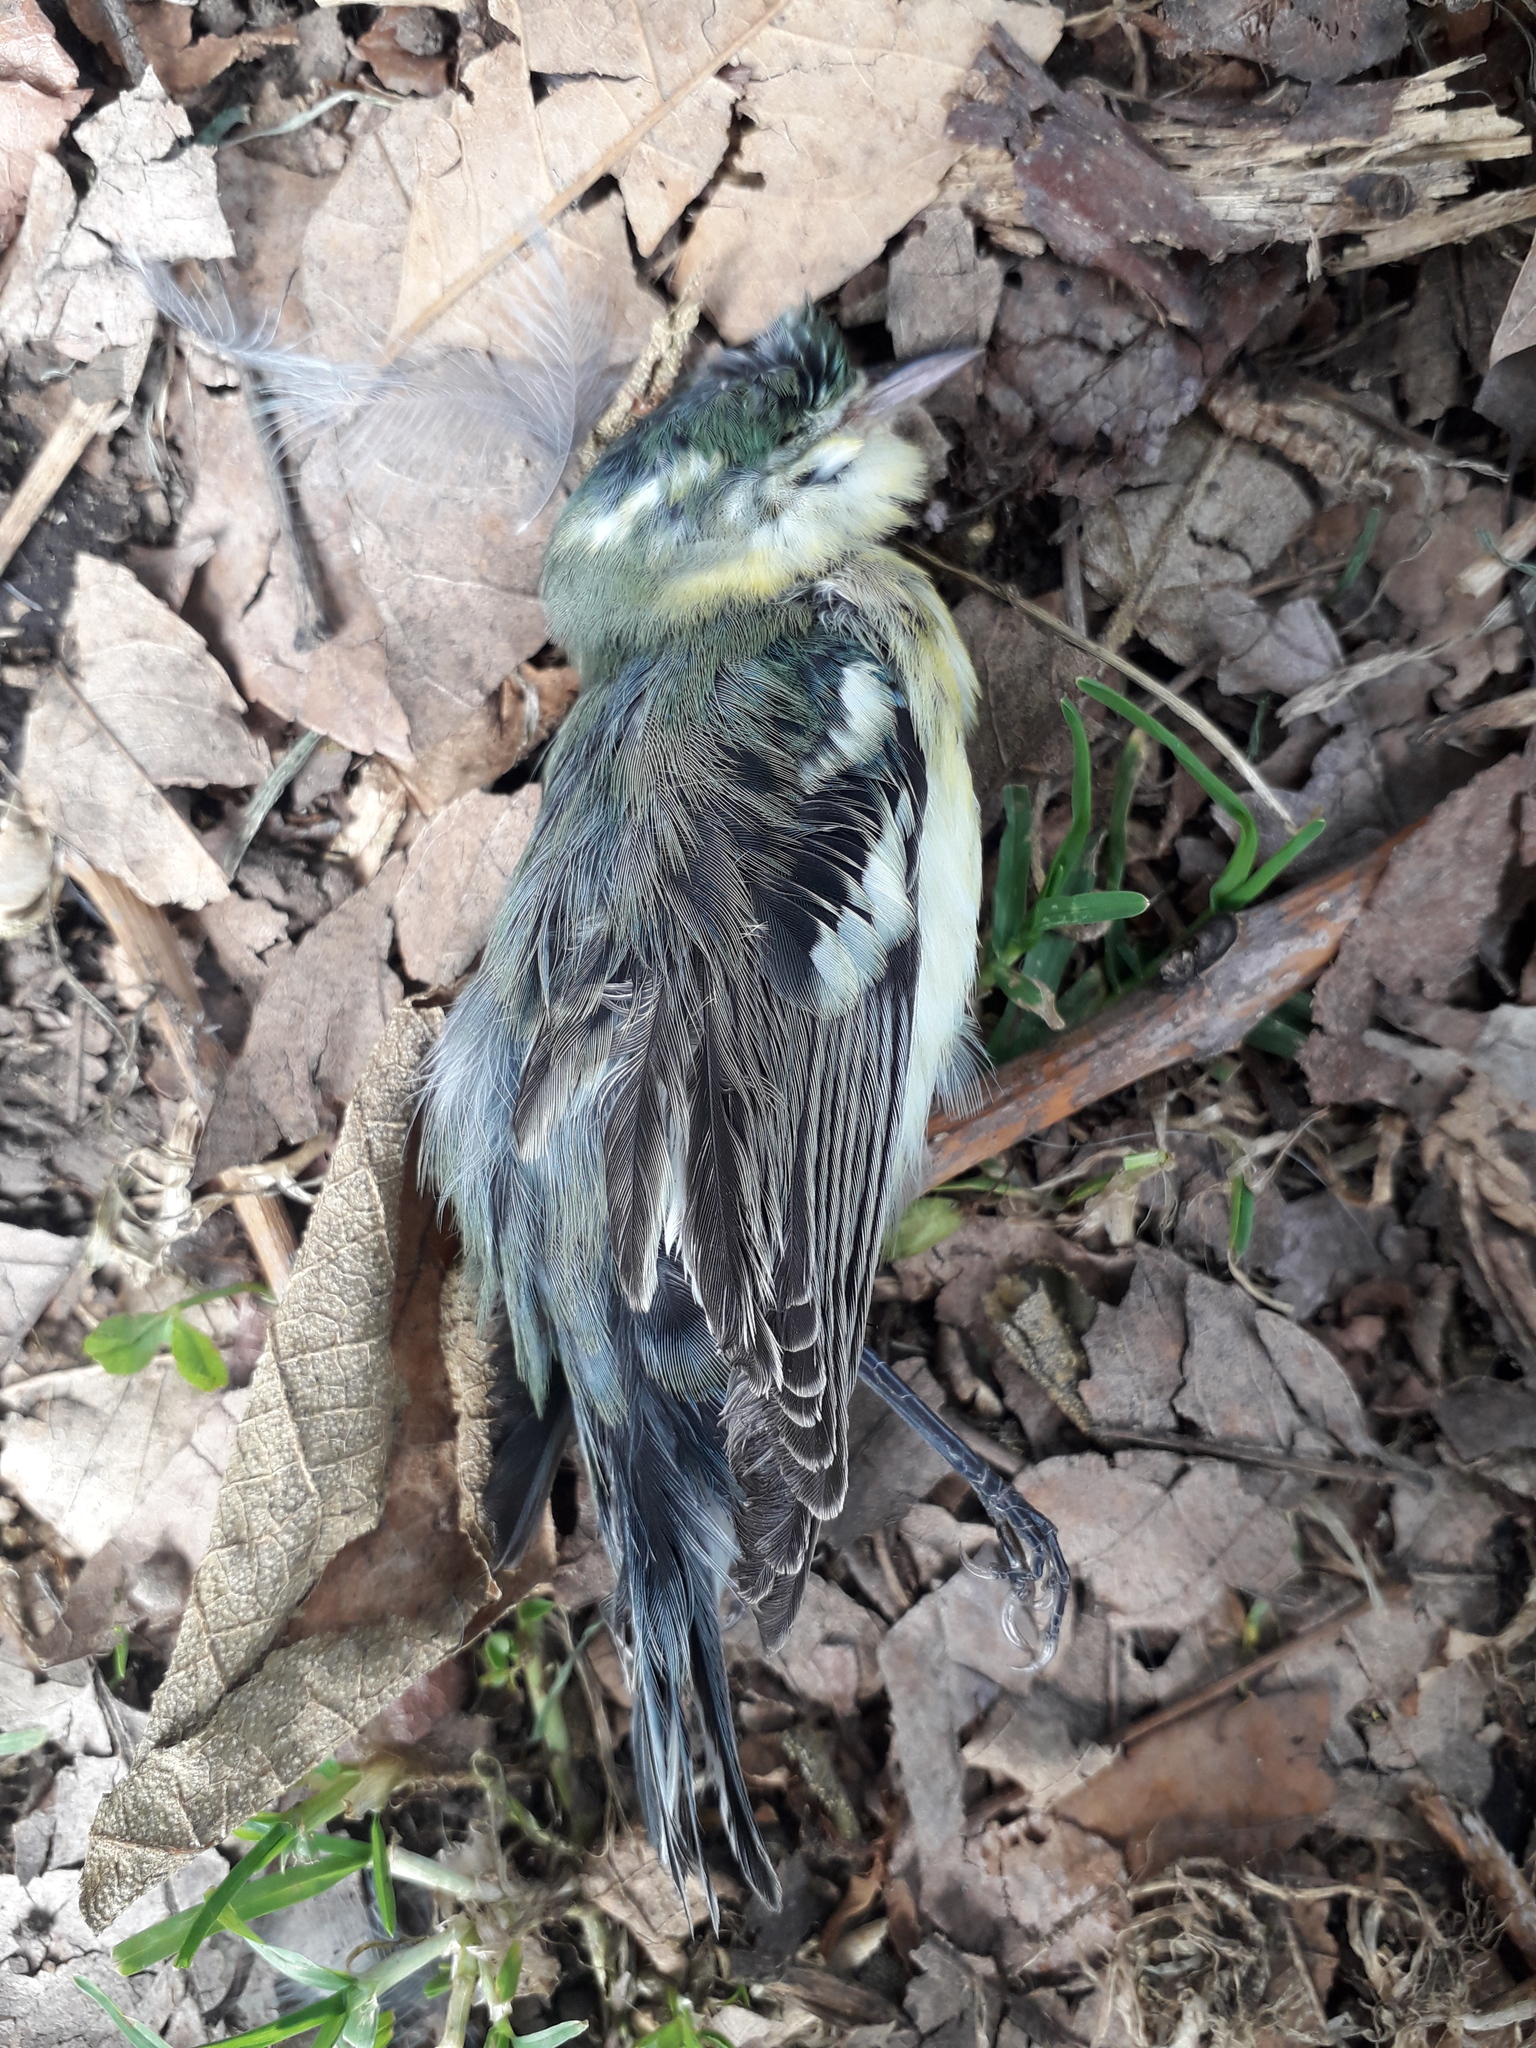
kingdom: Animalia
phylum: Chordata
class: Aves
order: Passeriformes
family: Parulidae
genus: Setophaga
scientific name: Setophaga cerulea
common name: Cerulean warbler
